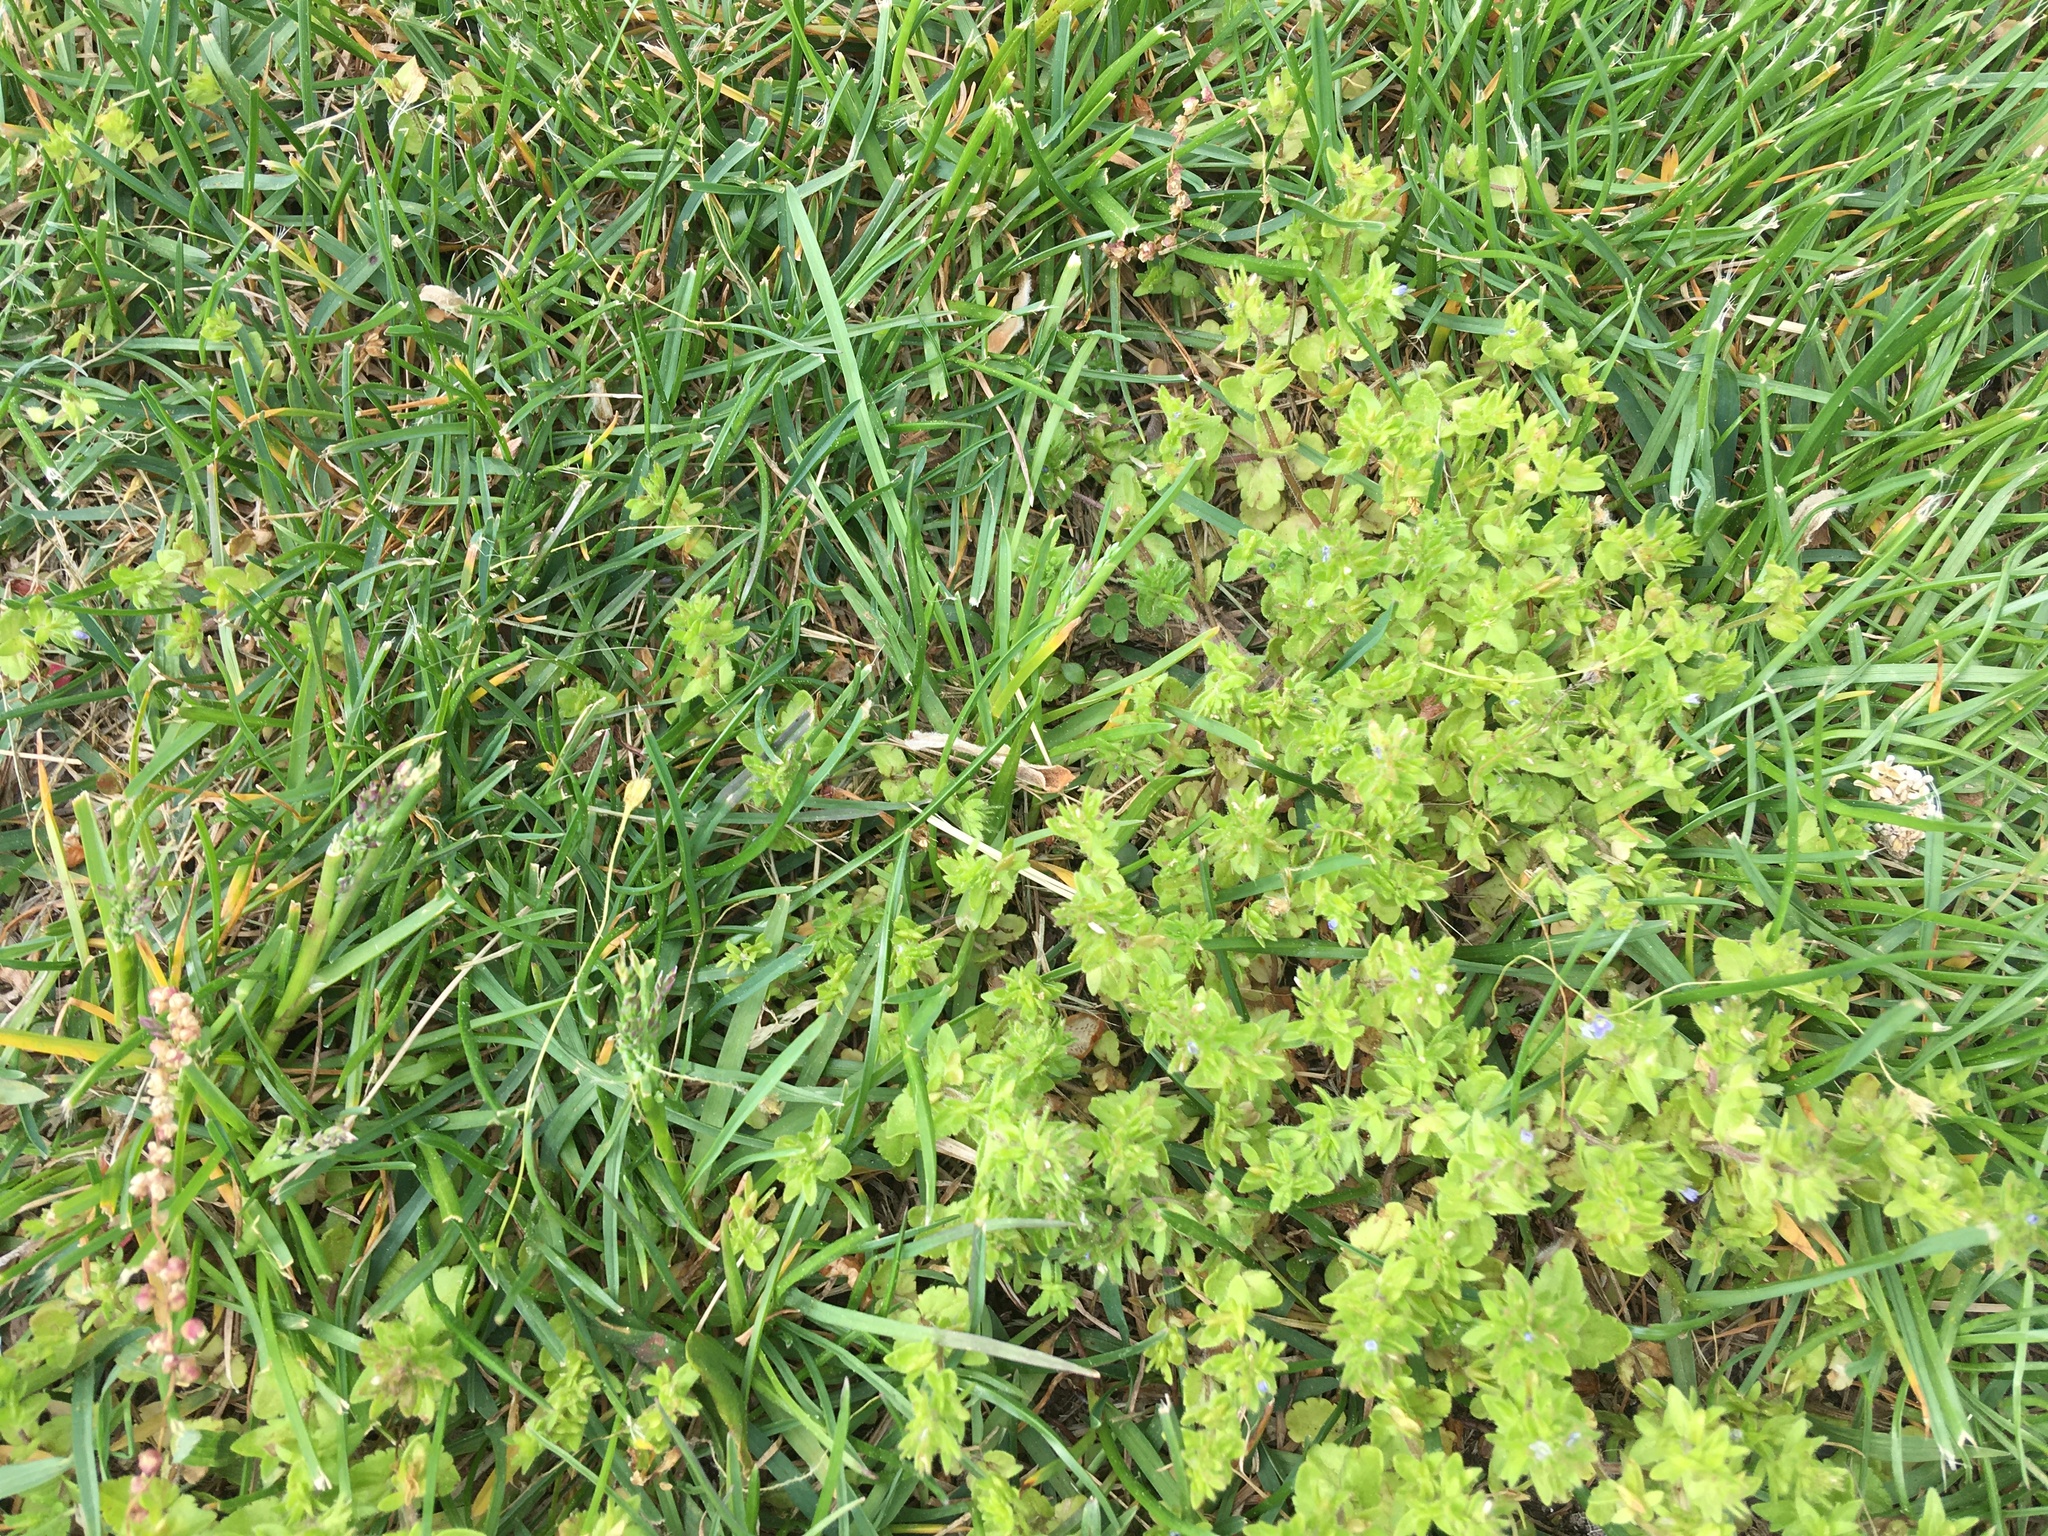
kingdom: Plantae
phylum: Tracheophyta
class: Magnoliopsida
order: Lamiales
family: Plantaginaceae
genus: Veronica
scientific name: Veronica arvensis
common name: Corn speedwell
